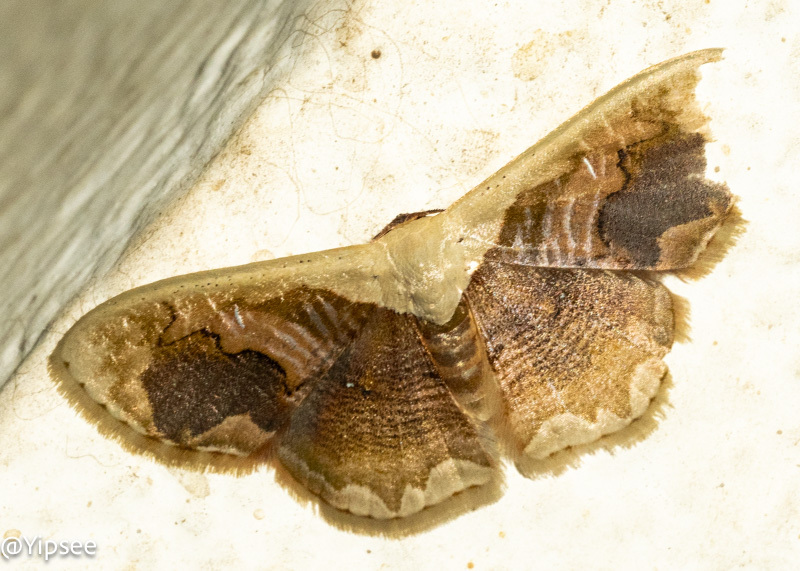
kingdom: Animalia
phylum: Arthropoda
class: Insecta
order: Lepidoptera
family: Geometridae
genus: Lipomelia
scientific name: Lipomelia subusta
